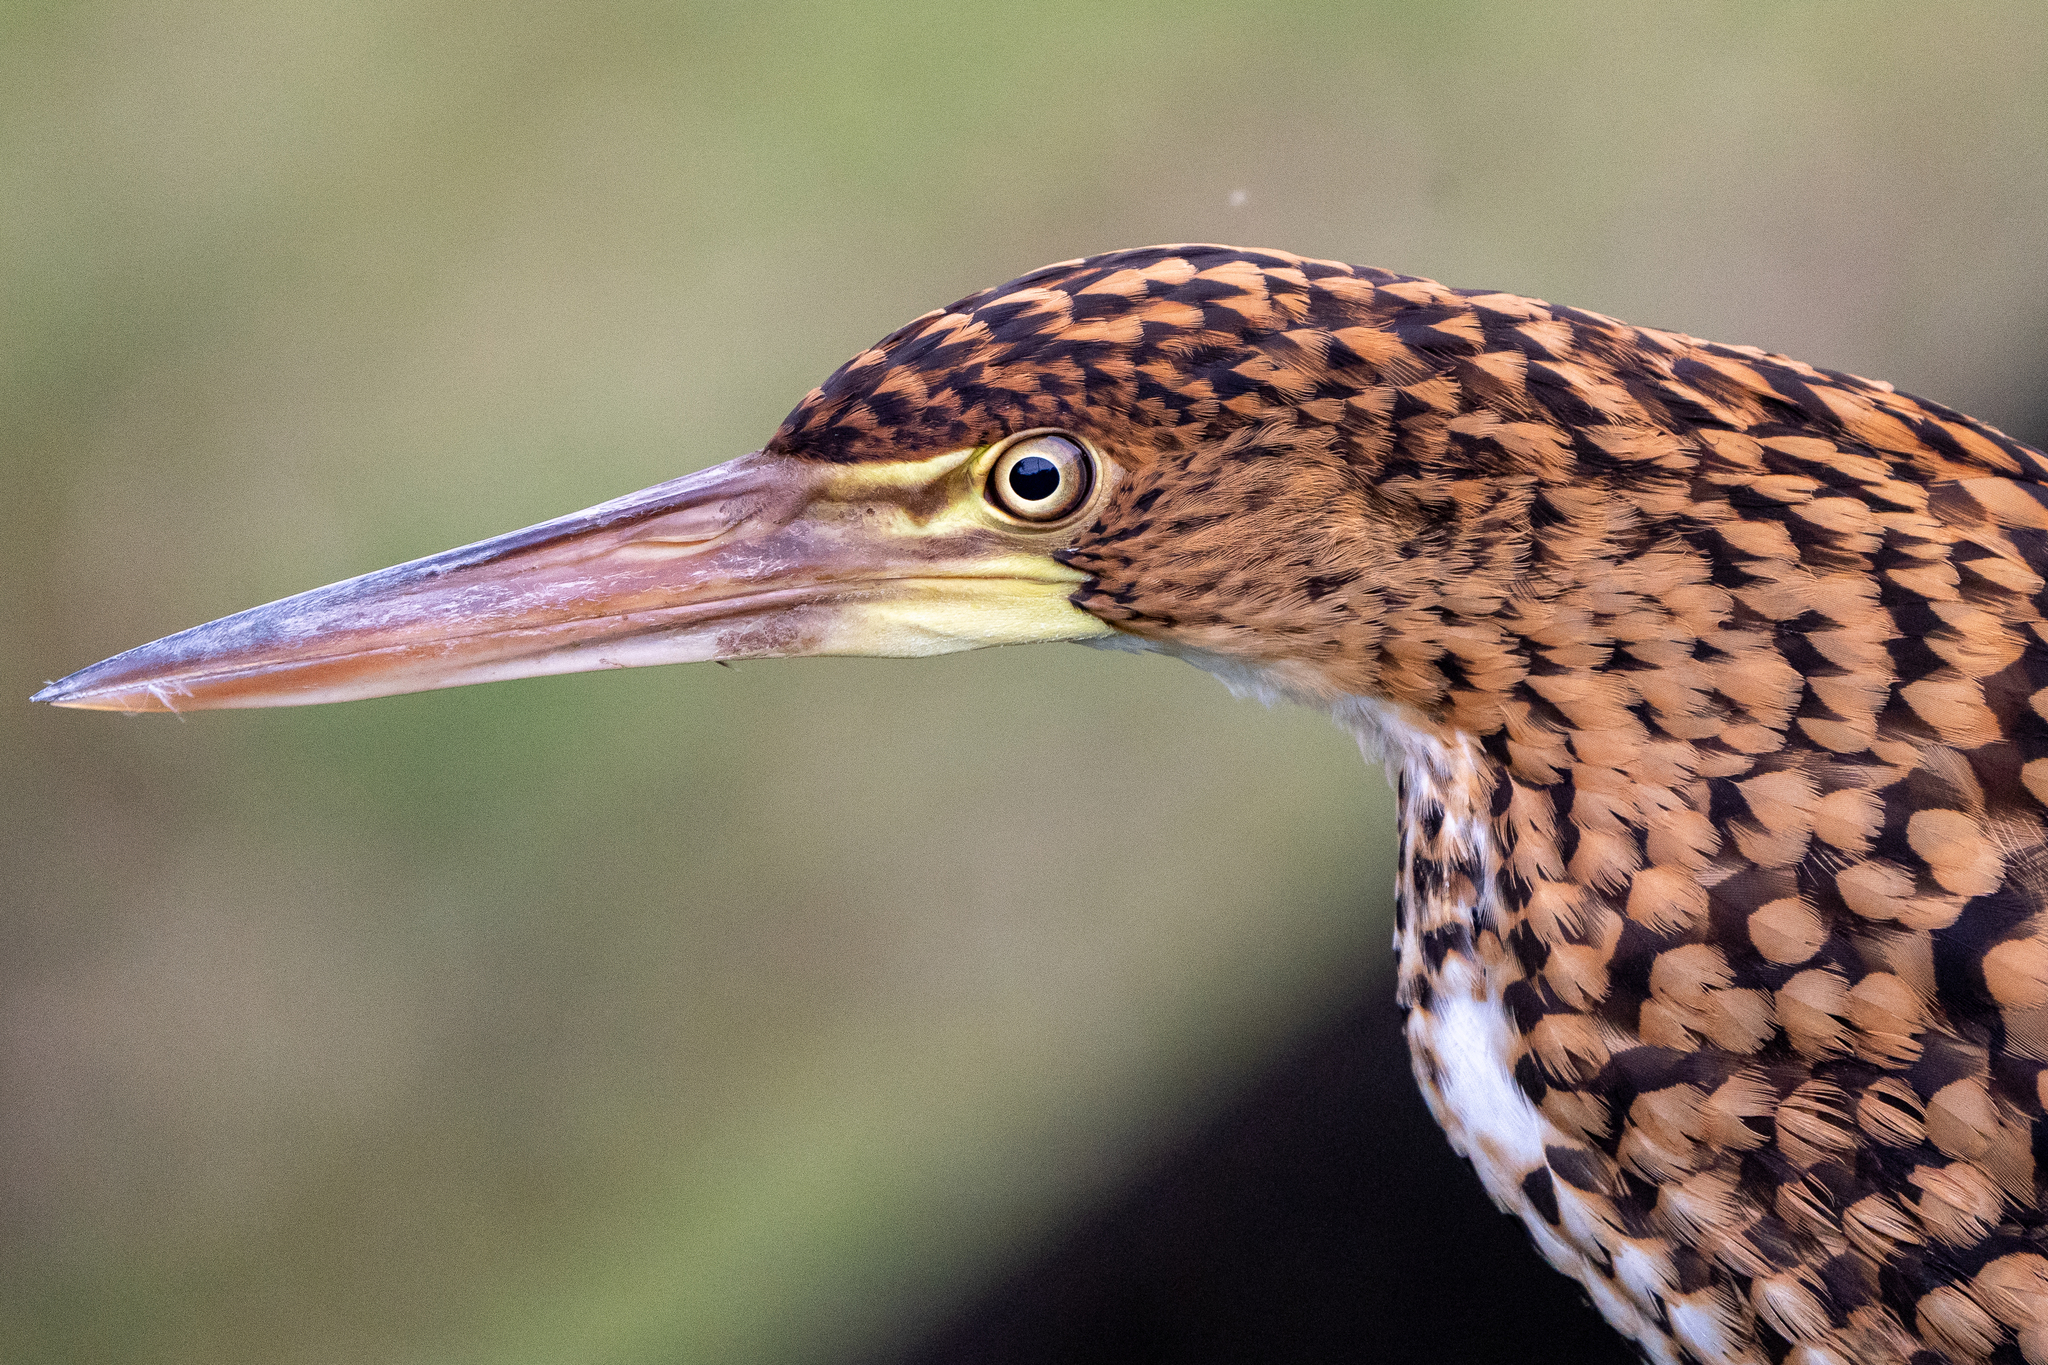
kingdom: Animalia
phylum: Chordata
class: Aves
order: Pelecaniformes
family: Ardeidae
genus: Tigrisoma
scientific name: Tigrisoma lineatum
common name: Rufescent tiger-heron
